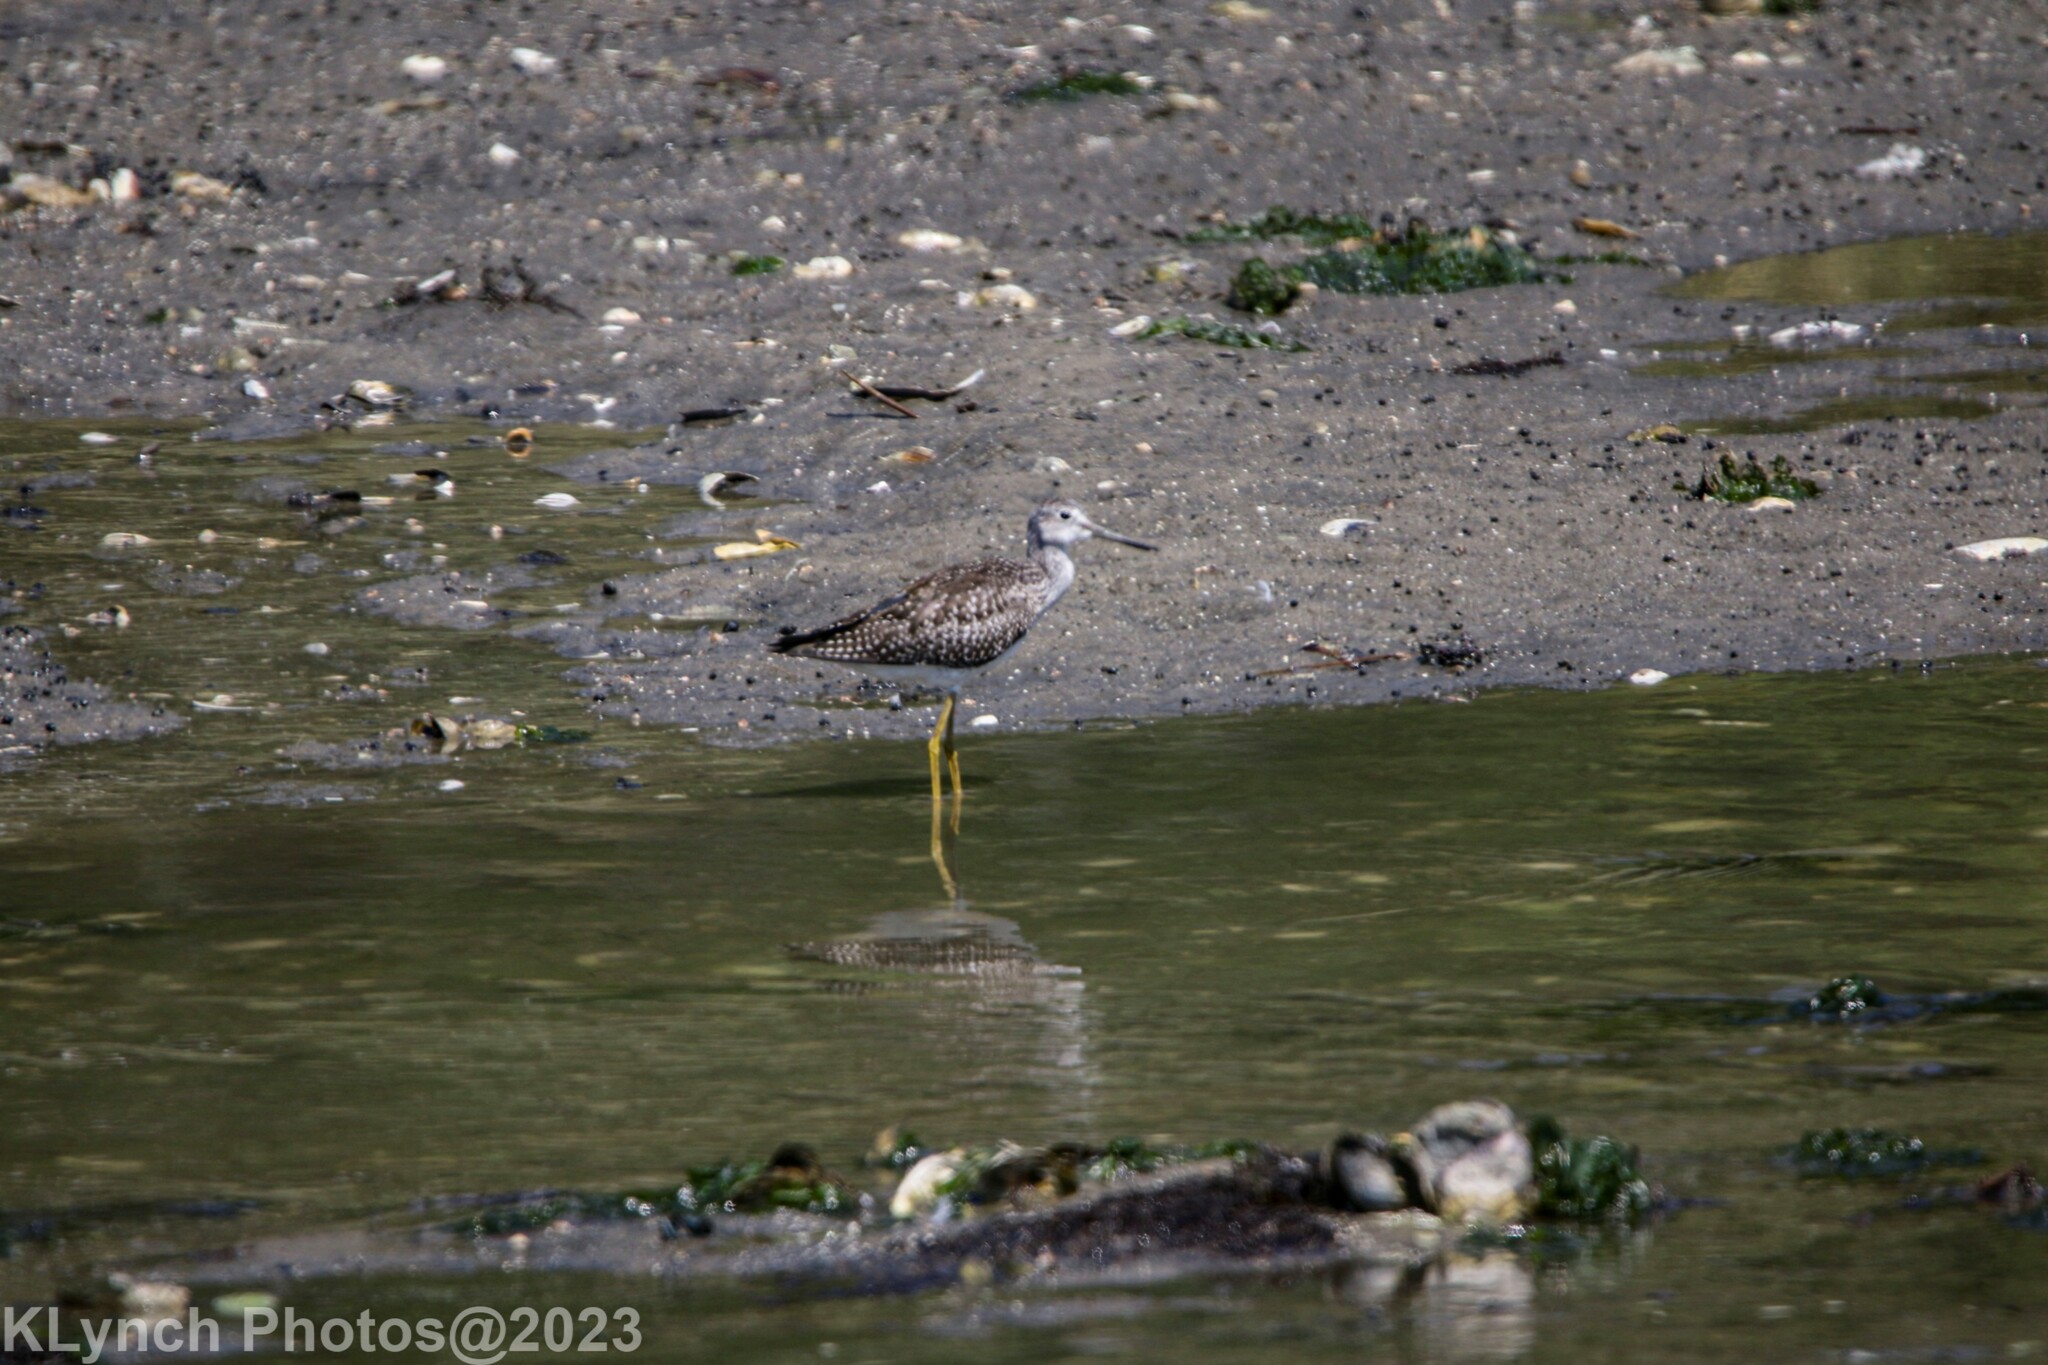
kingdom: Animalia
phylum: Chordata
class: Aves
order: Charadriiformes
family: Scolopacidae
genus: Tringa
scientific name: Tringa melanoleuca
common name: Greater yellowlegs
